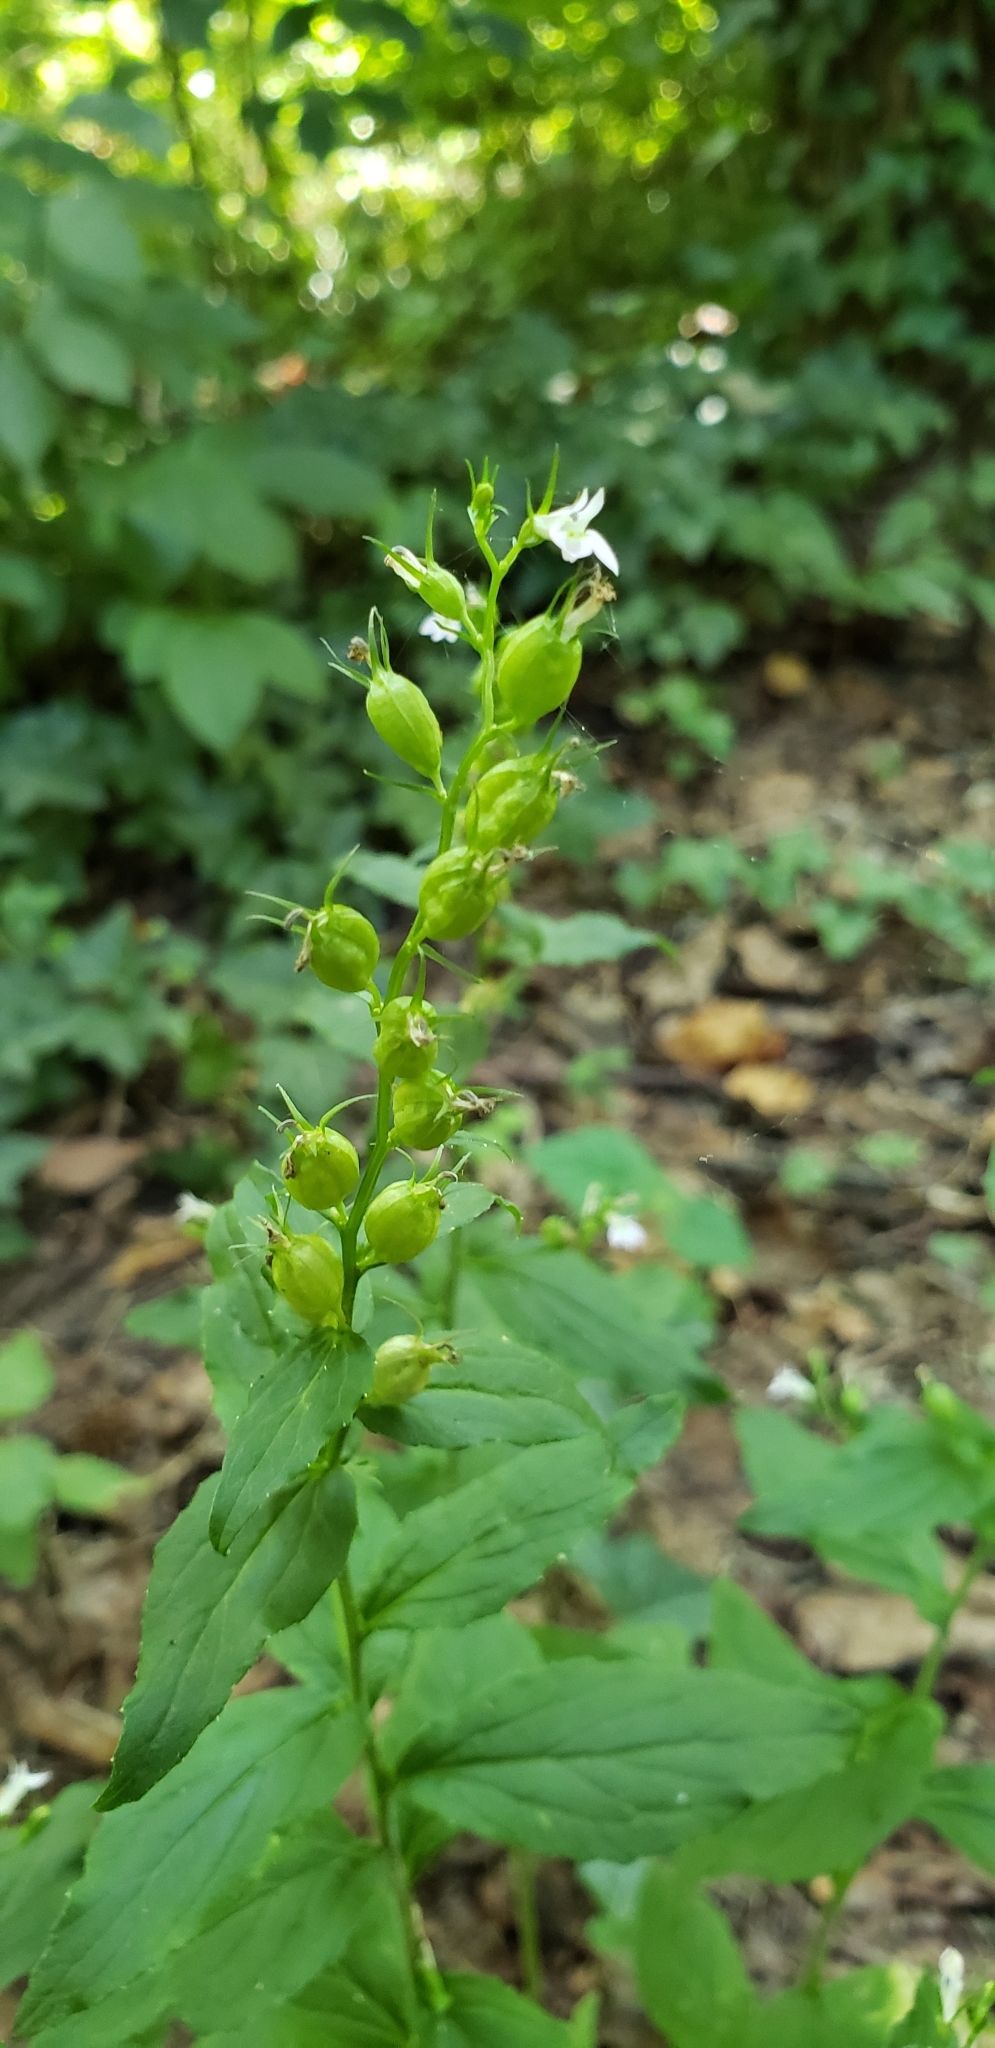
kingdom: Plantae
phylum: Tracheophyta
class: Magnoliopsida
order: Asterales
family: Campanulaceae
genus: Lobelia
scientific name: Lobelia inflata
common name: Indian tobacco
